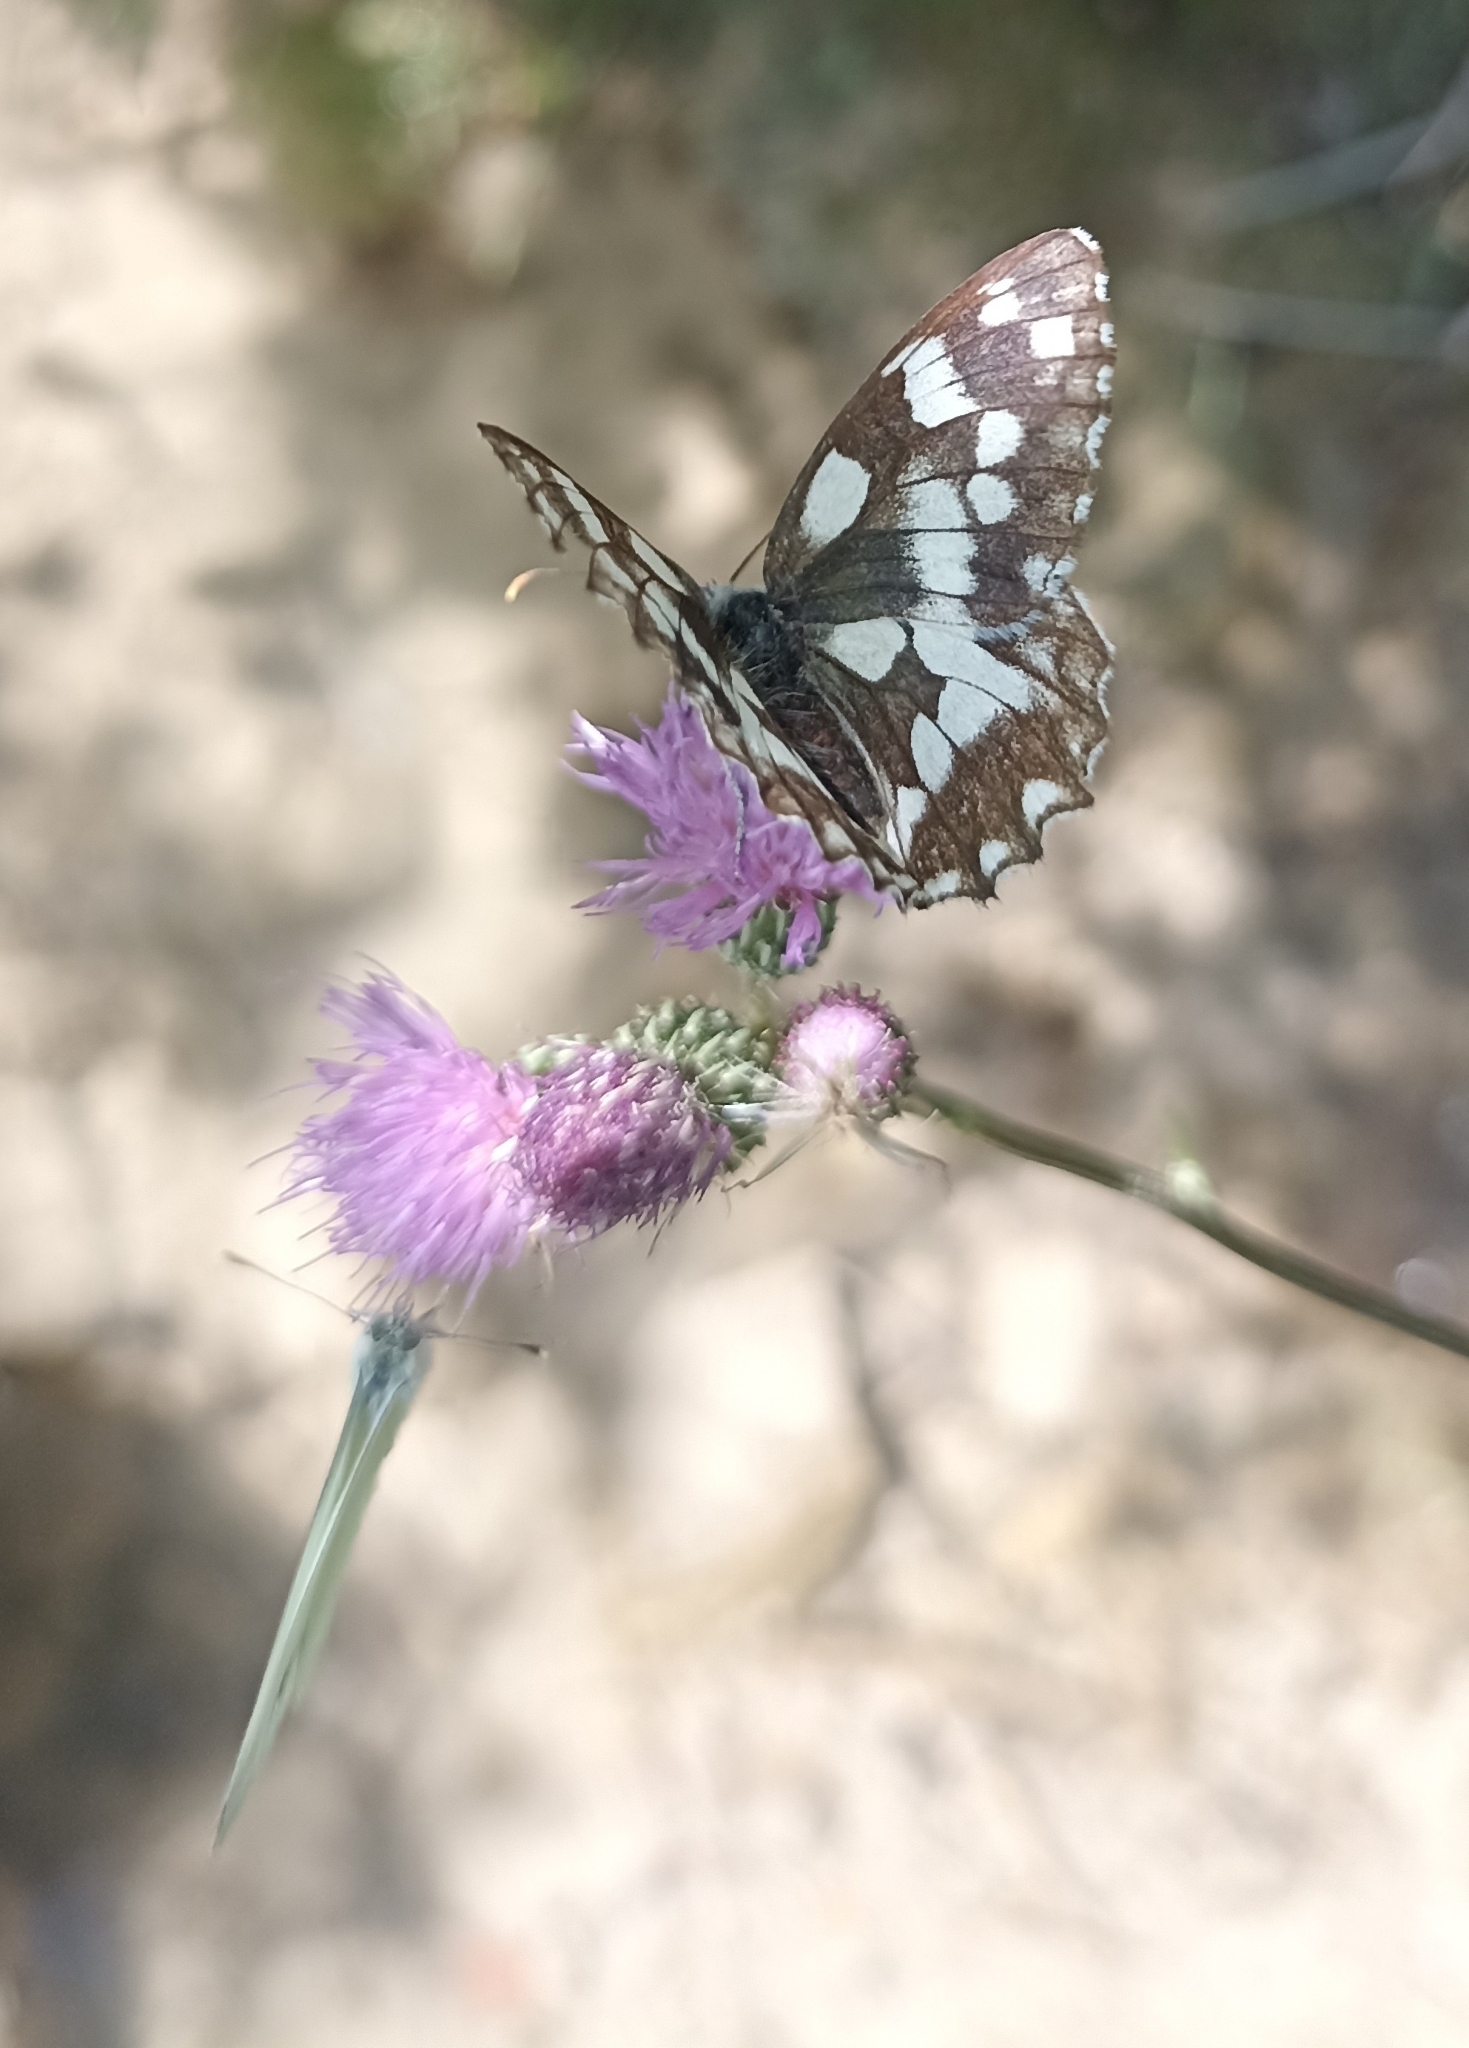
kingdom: Animalia
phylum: Arthropoda
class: Insecta
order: Lepidoptera
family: Nymphalidae
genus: Melanargia
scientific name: Melanargia galathea
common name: Marbled white
